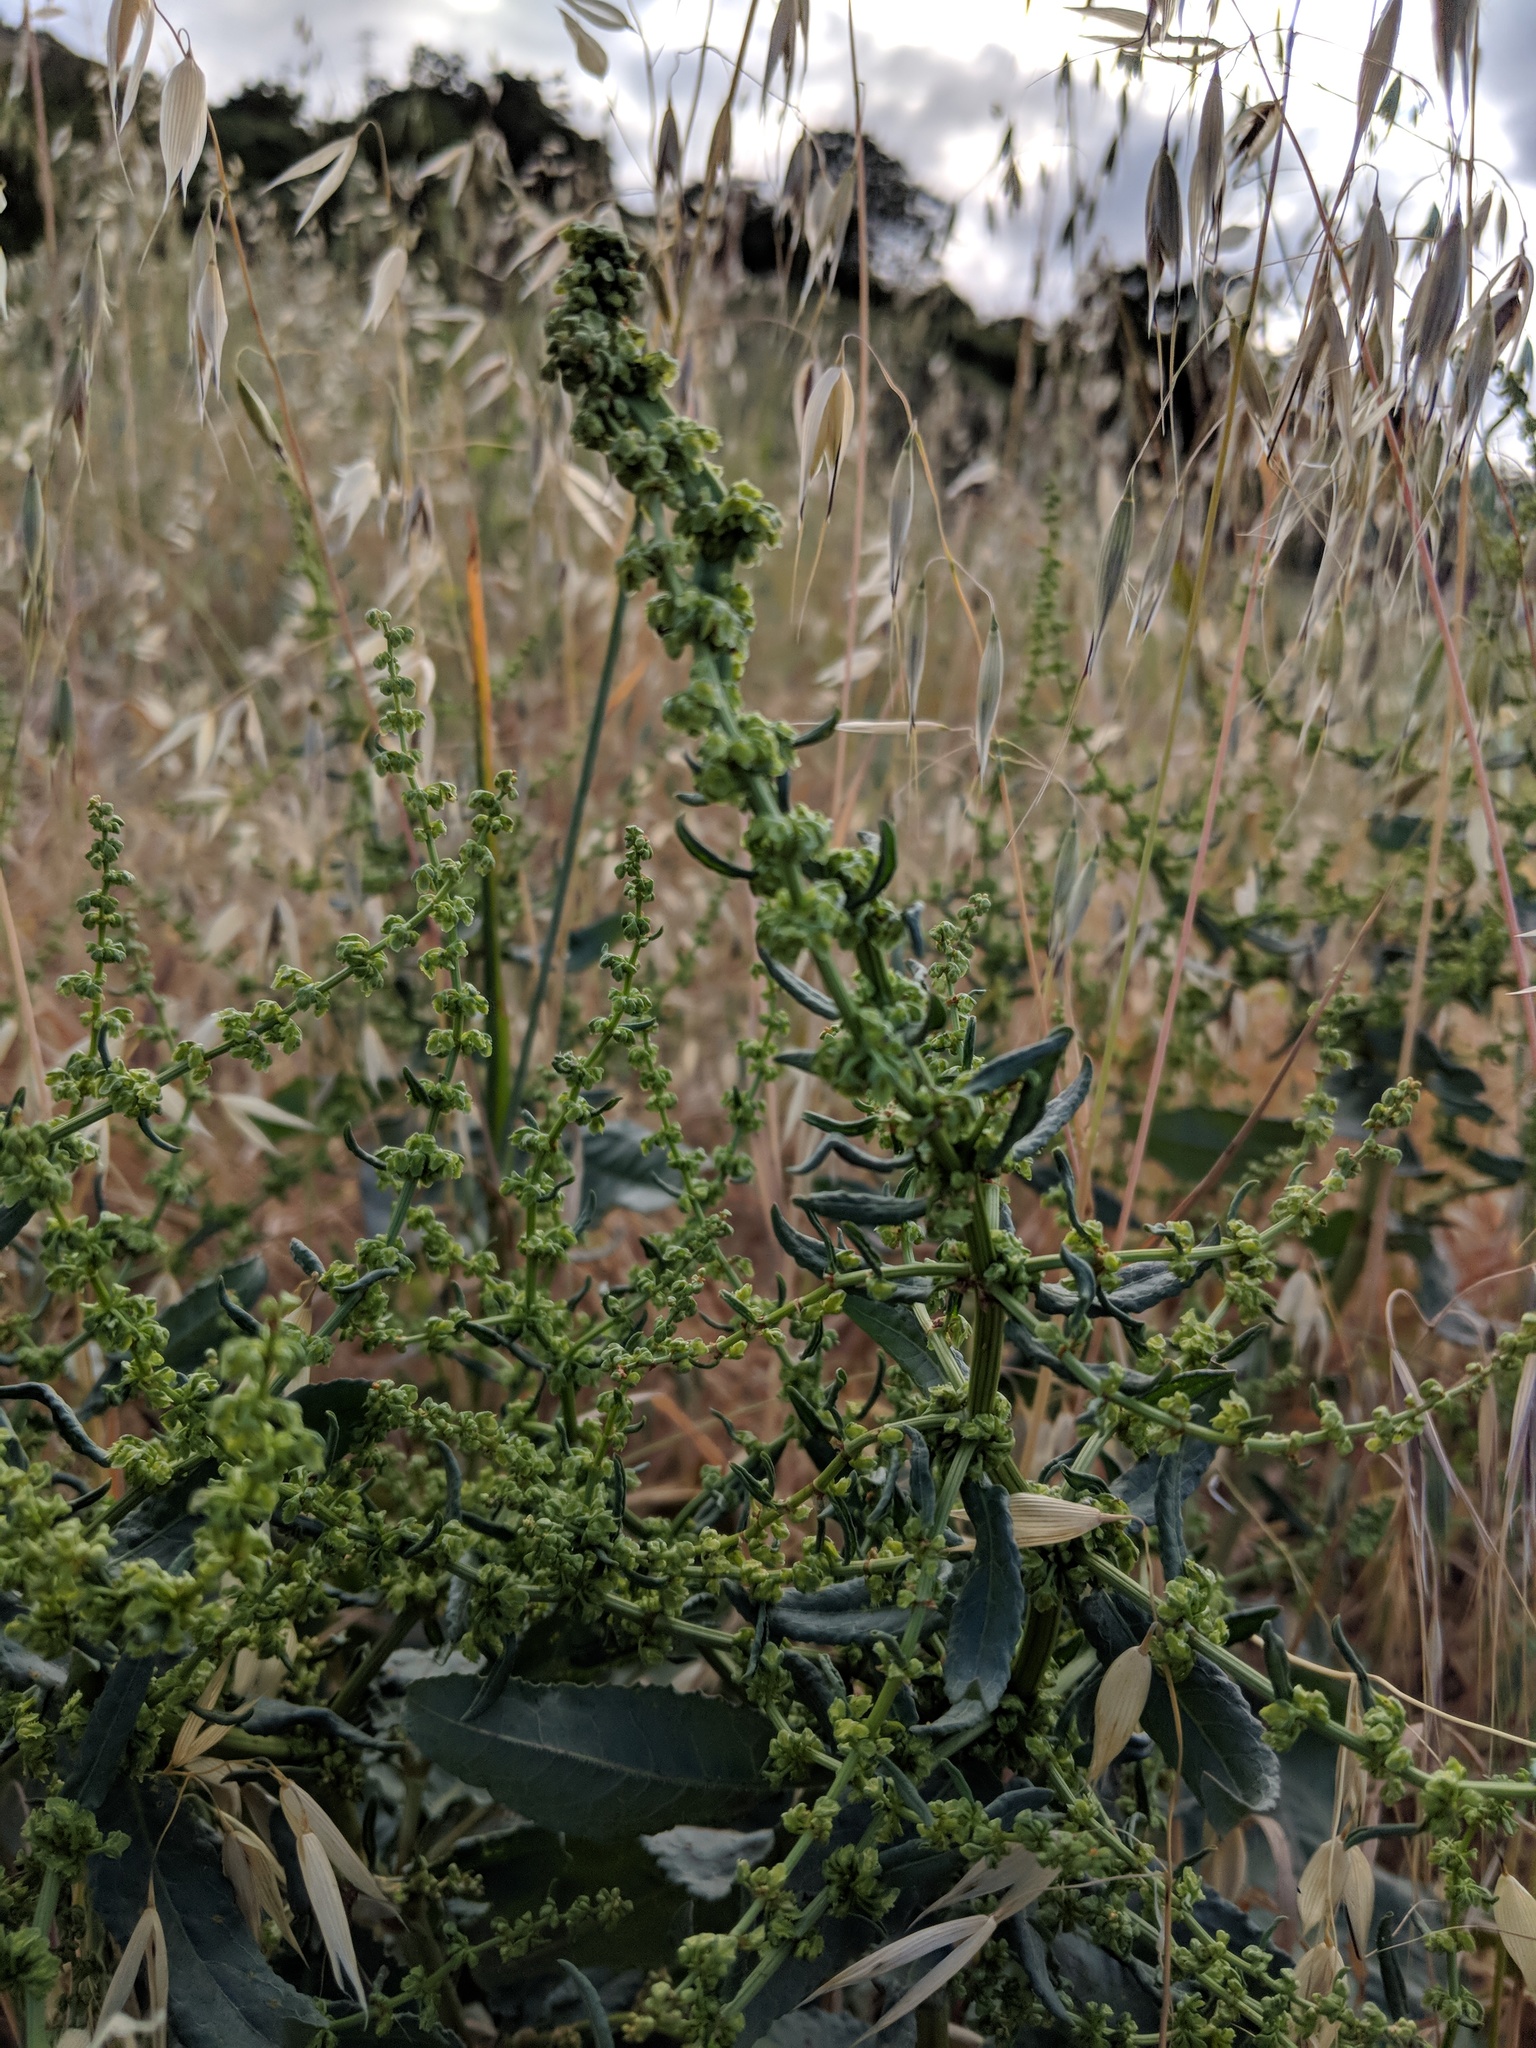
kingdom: Plantae
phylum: Tracheophyta
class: Magnoliopsida
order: Caryophyllales
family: Polygonaceae
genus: Rumex
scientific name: Rumex crispus
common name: Curled dock
